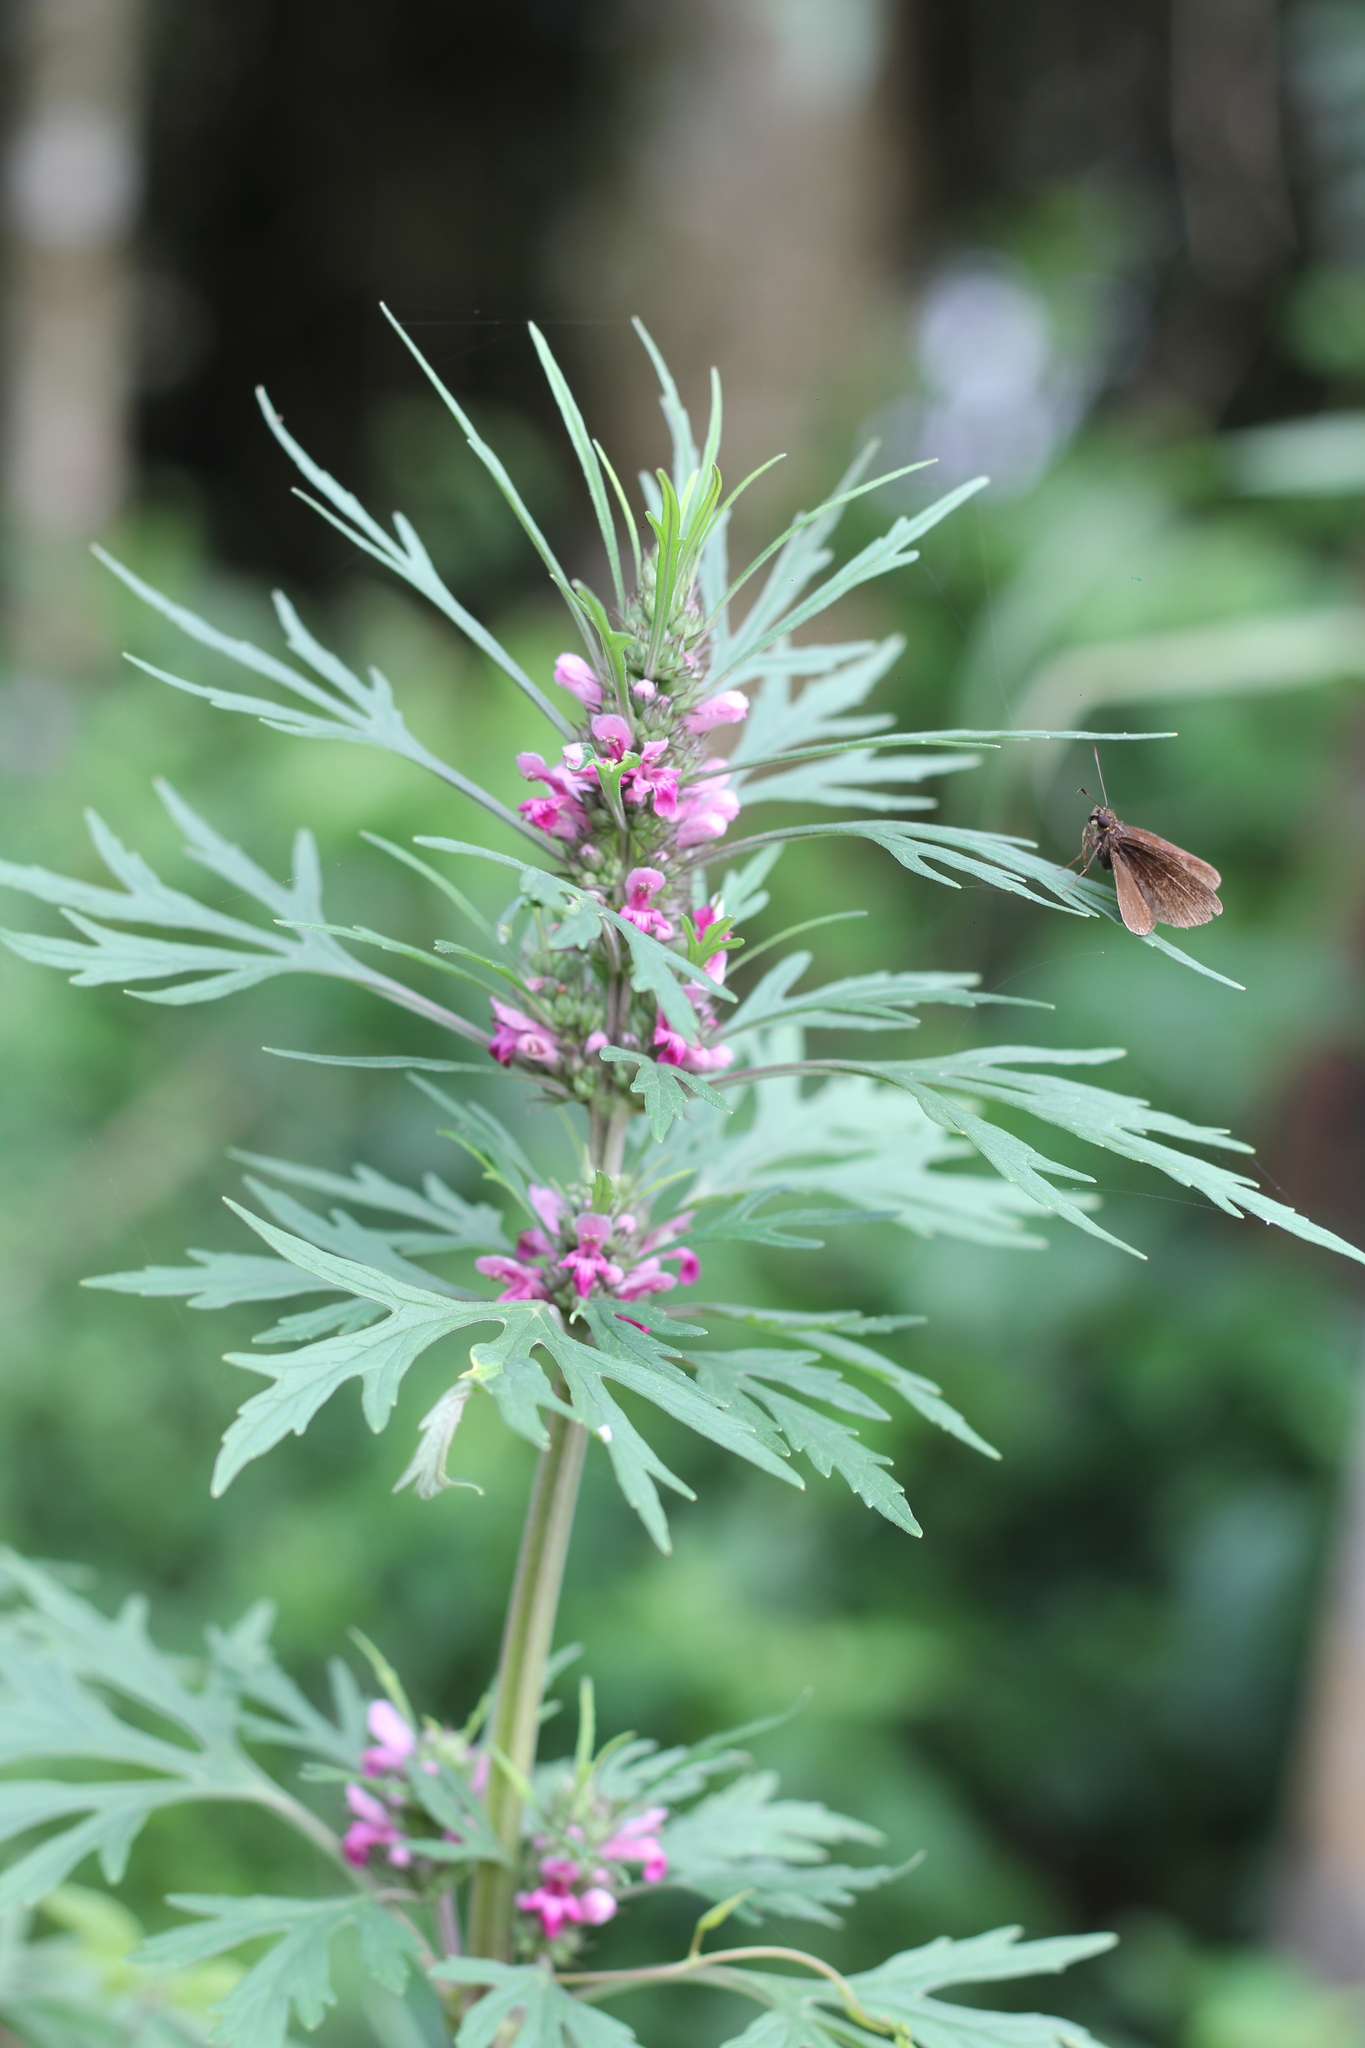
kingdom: Plantae
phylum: Tracheophyta
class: Magnoliopsida
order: Lamiales
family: Lamiaceae
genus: Leonurus
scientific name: Leonurus japonicus
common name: Honeyweed
